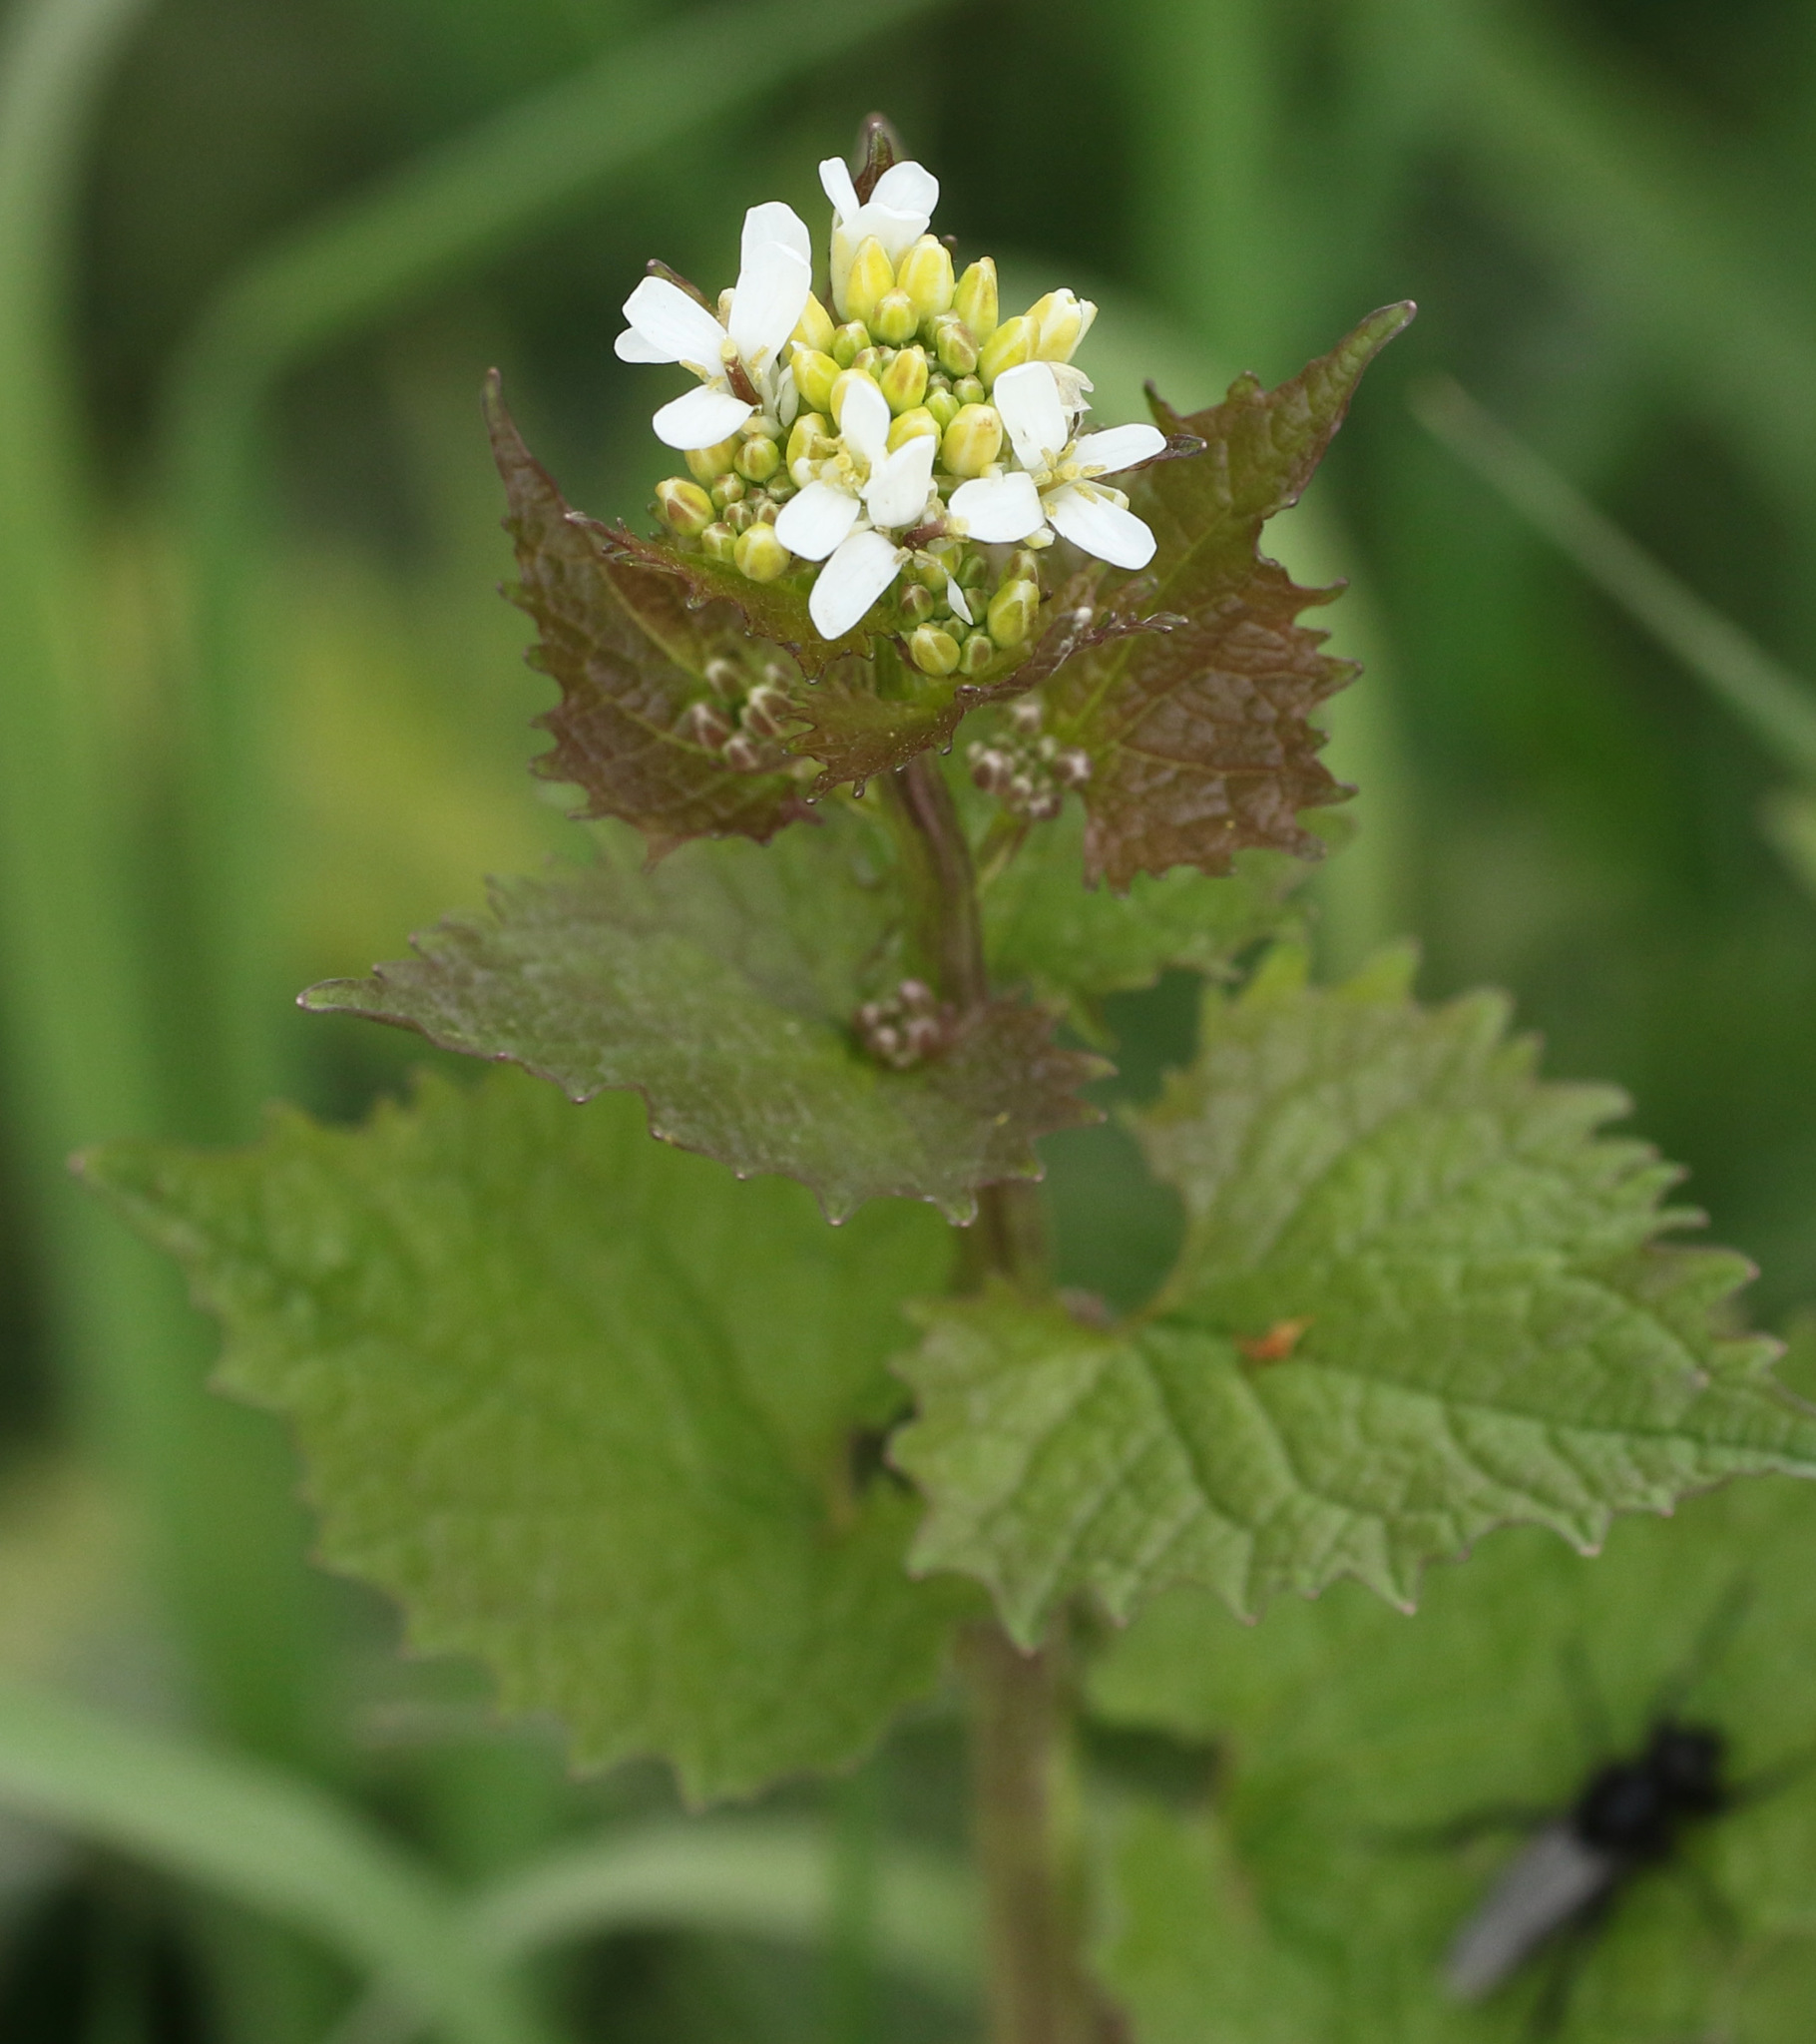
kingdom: Plantae
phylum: Tracheophyta
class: Magnoliopsida
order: Brassicales
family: Brassicaceae
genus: Alliaria
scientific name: Alliaria petiolata
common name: Garlic mustard
